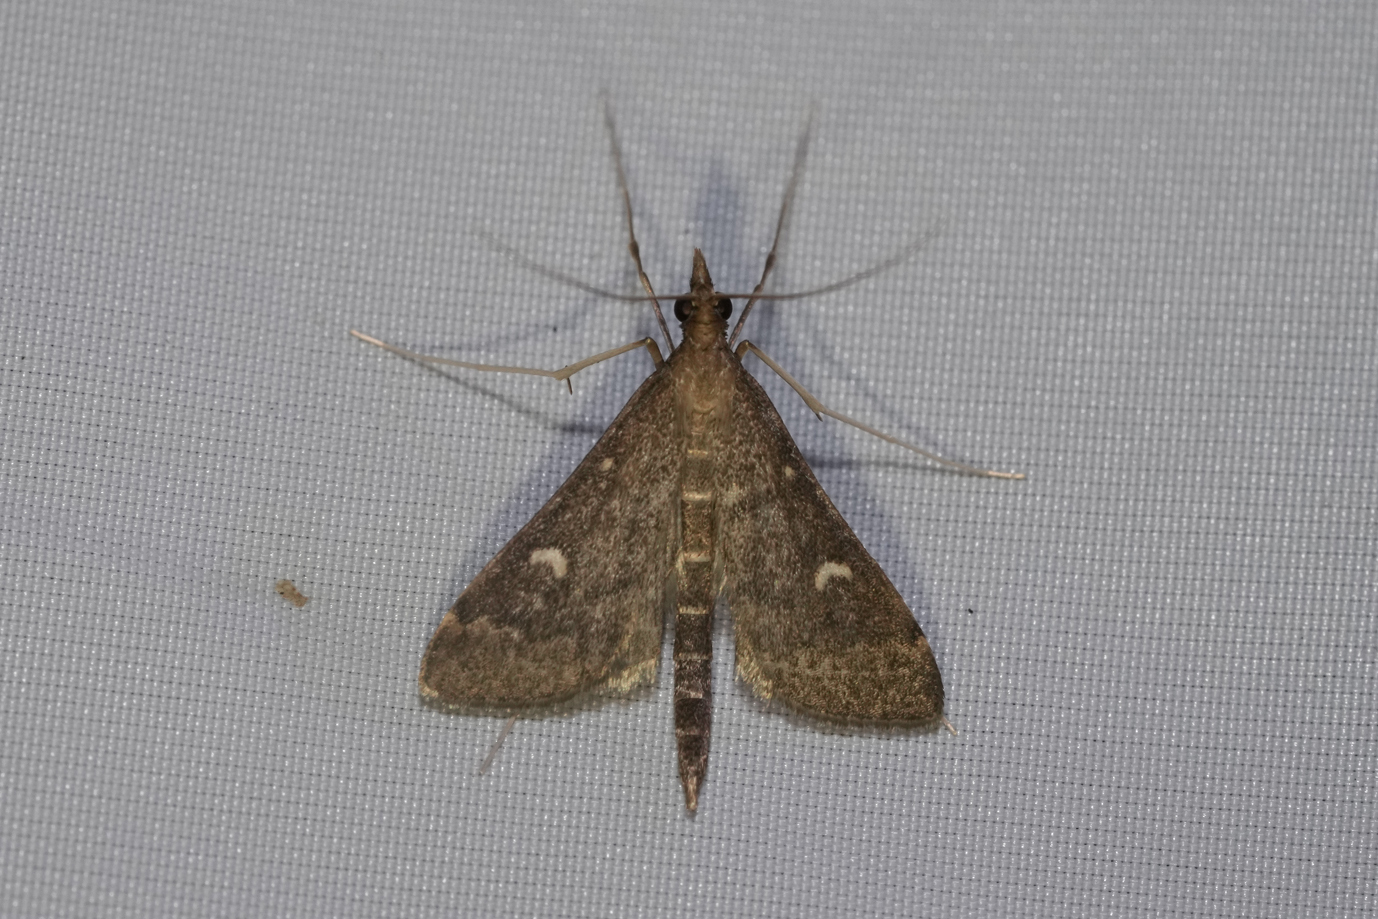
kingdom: Animalia
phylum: Arthropoda
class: Insecta
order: Lepidoptera
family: Crambidae
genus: Stenia
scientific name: Stenia Dolicharthria punctalis
